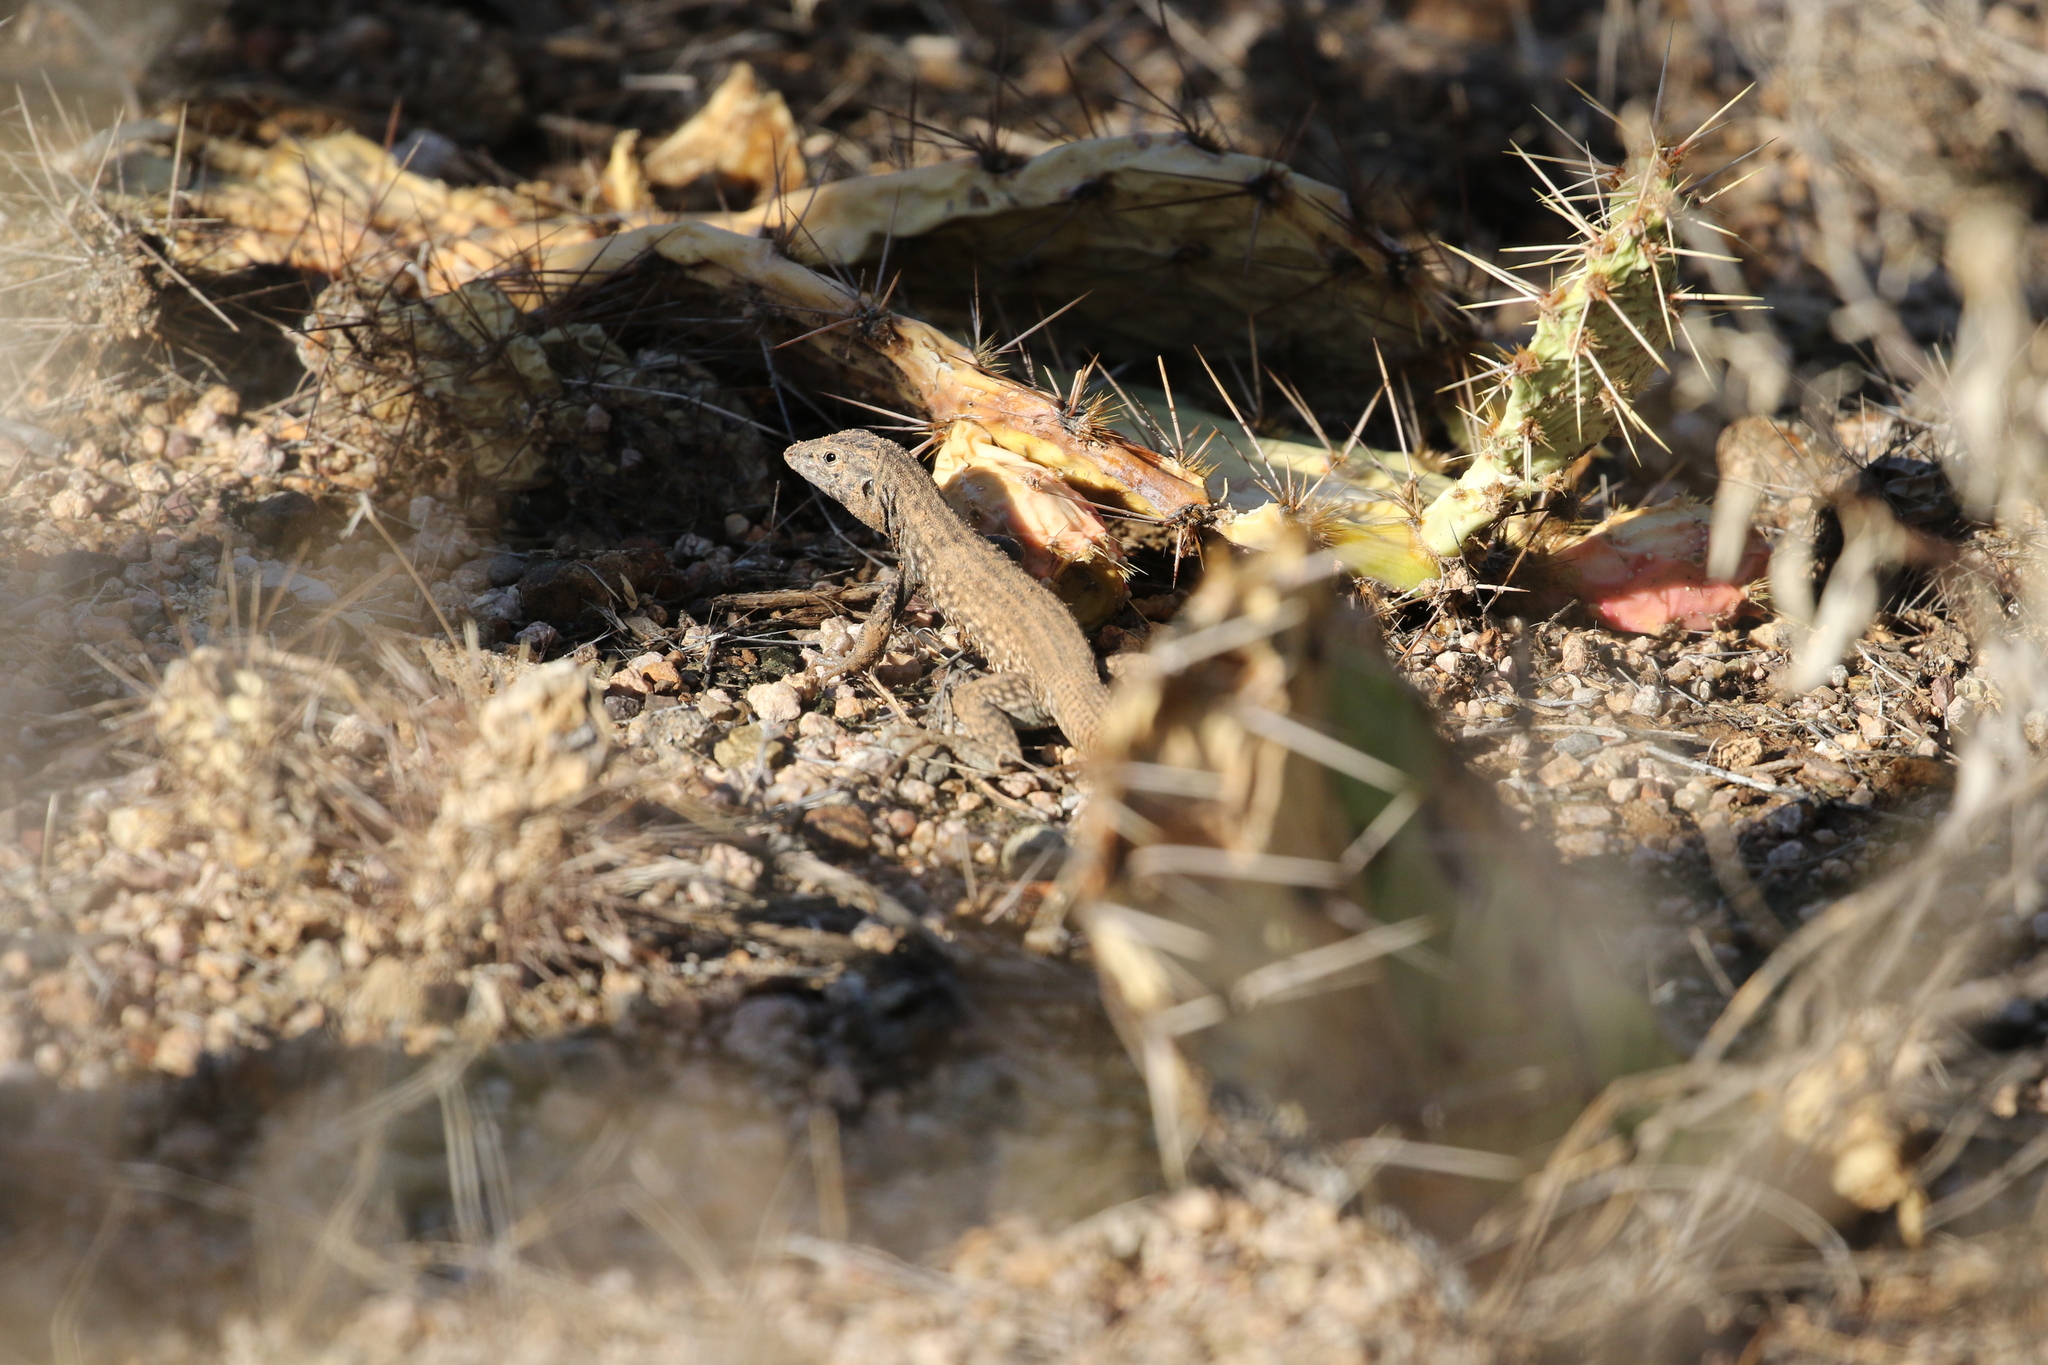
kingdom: Animalia
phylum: Chordata
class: Squamata
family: Teiidae
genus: Aspidoscelis
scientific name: Aspidoscelis tigris
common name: Tiger whiptail
